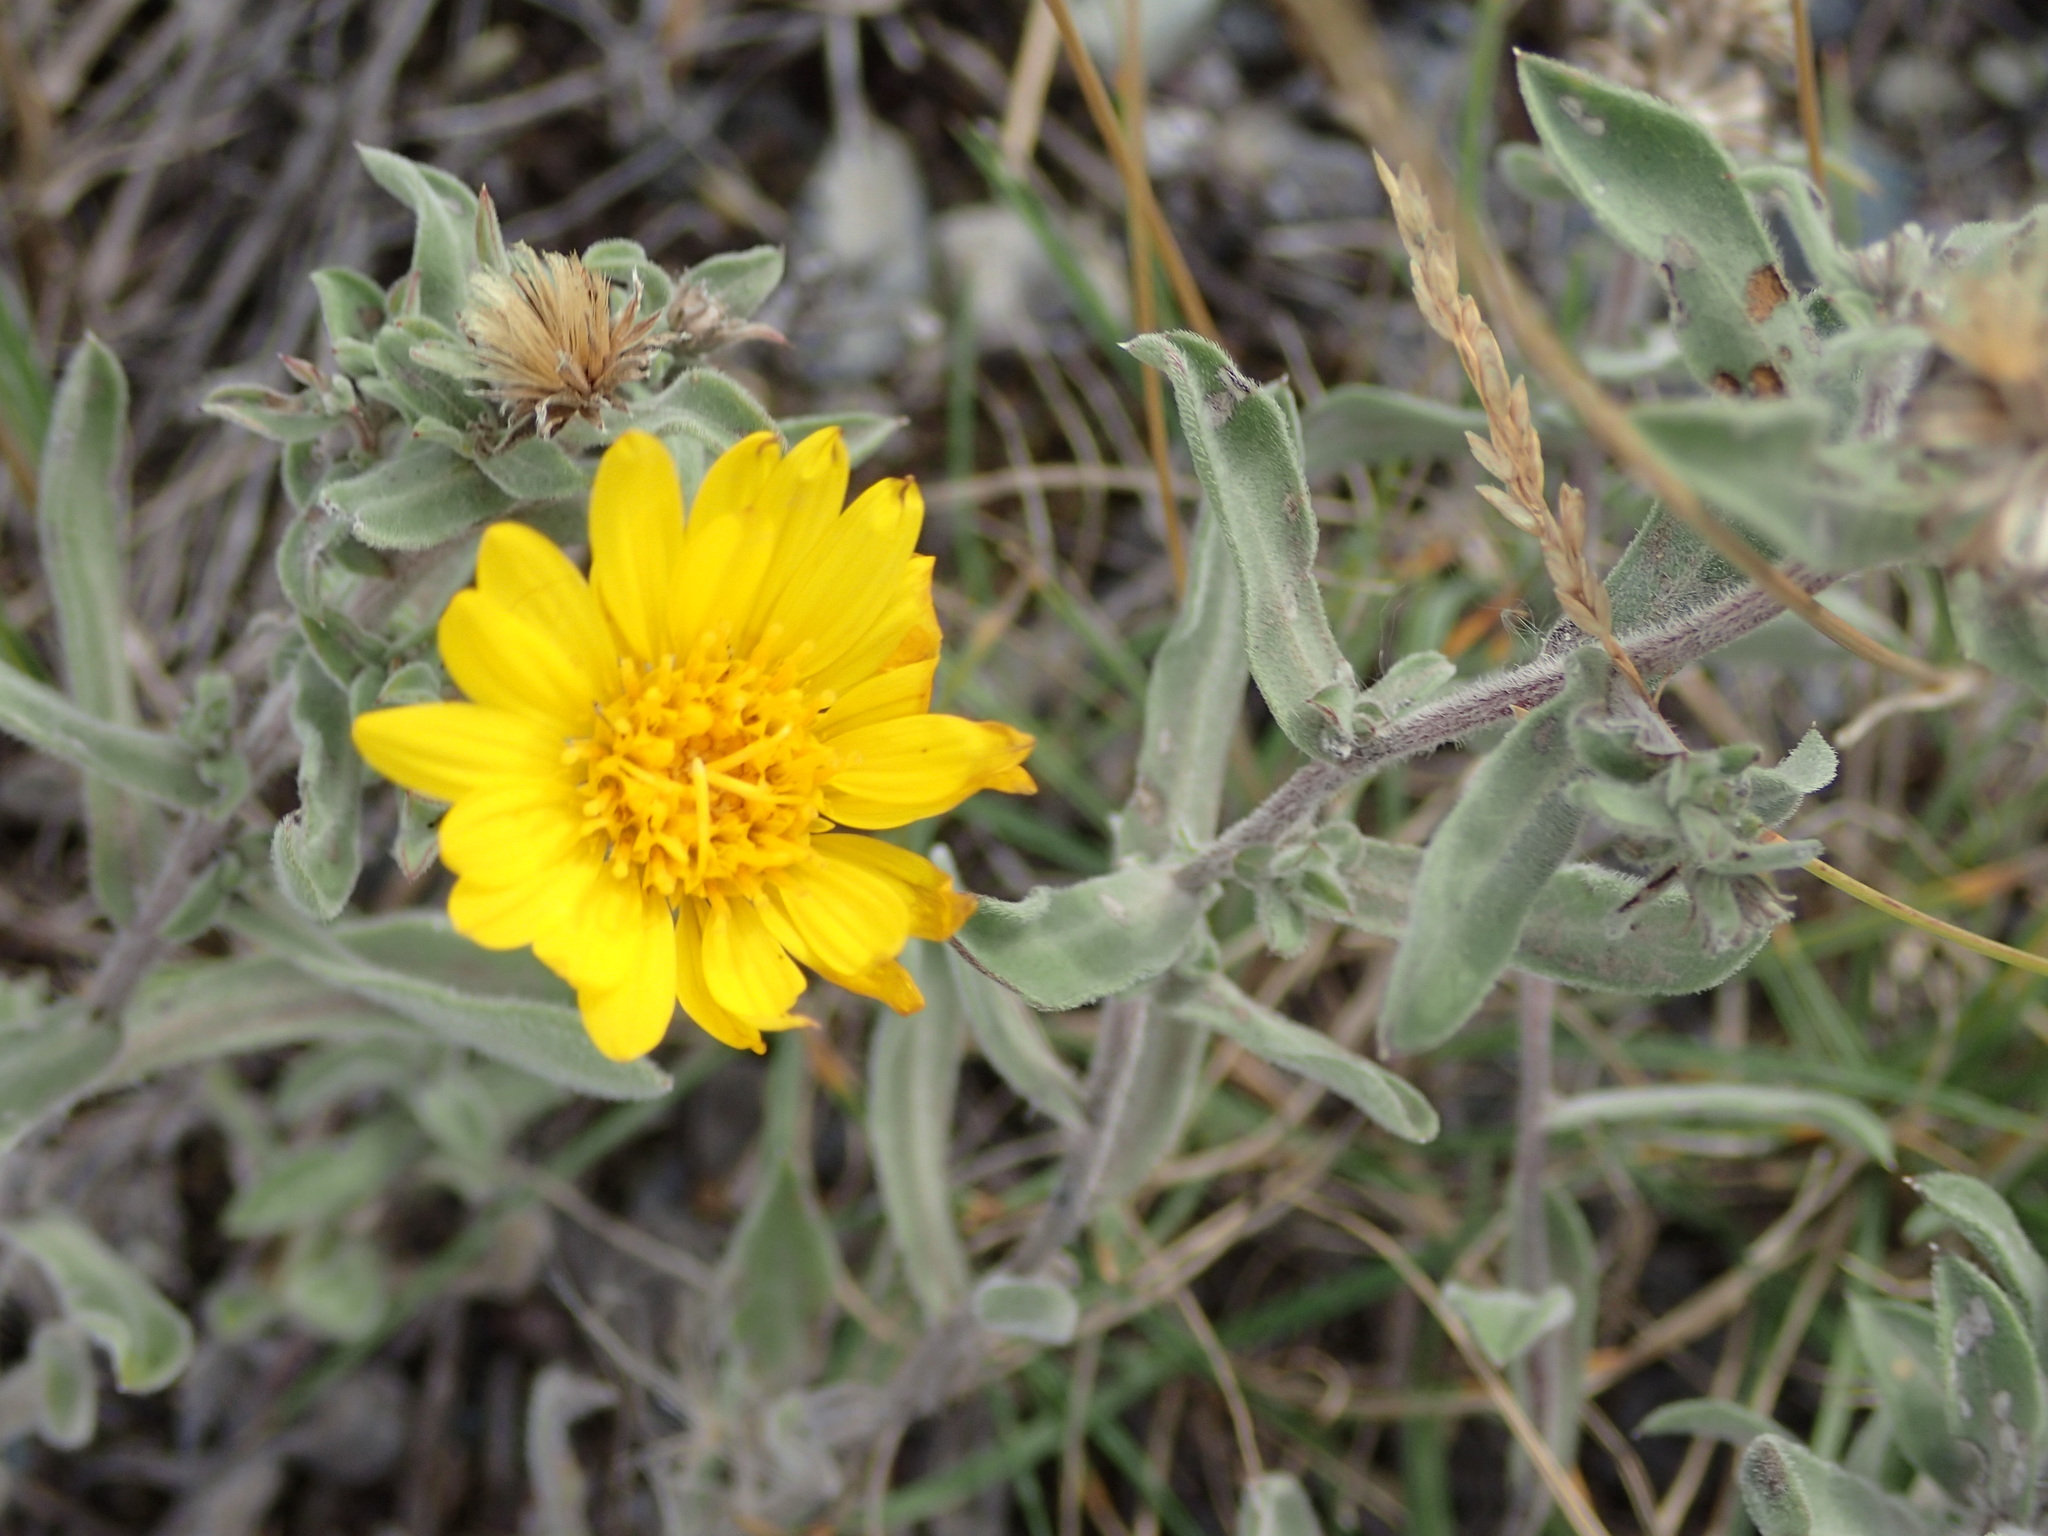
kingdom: Plantae
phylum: Tracheophyta
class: Magnoliopsida
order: Asterales
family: Asteraceae
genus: Heterotheca
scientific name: Heterotheca villosa
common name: Hairy false goldenaster
